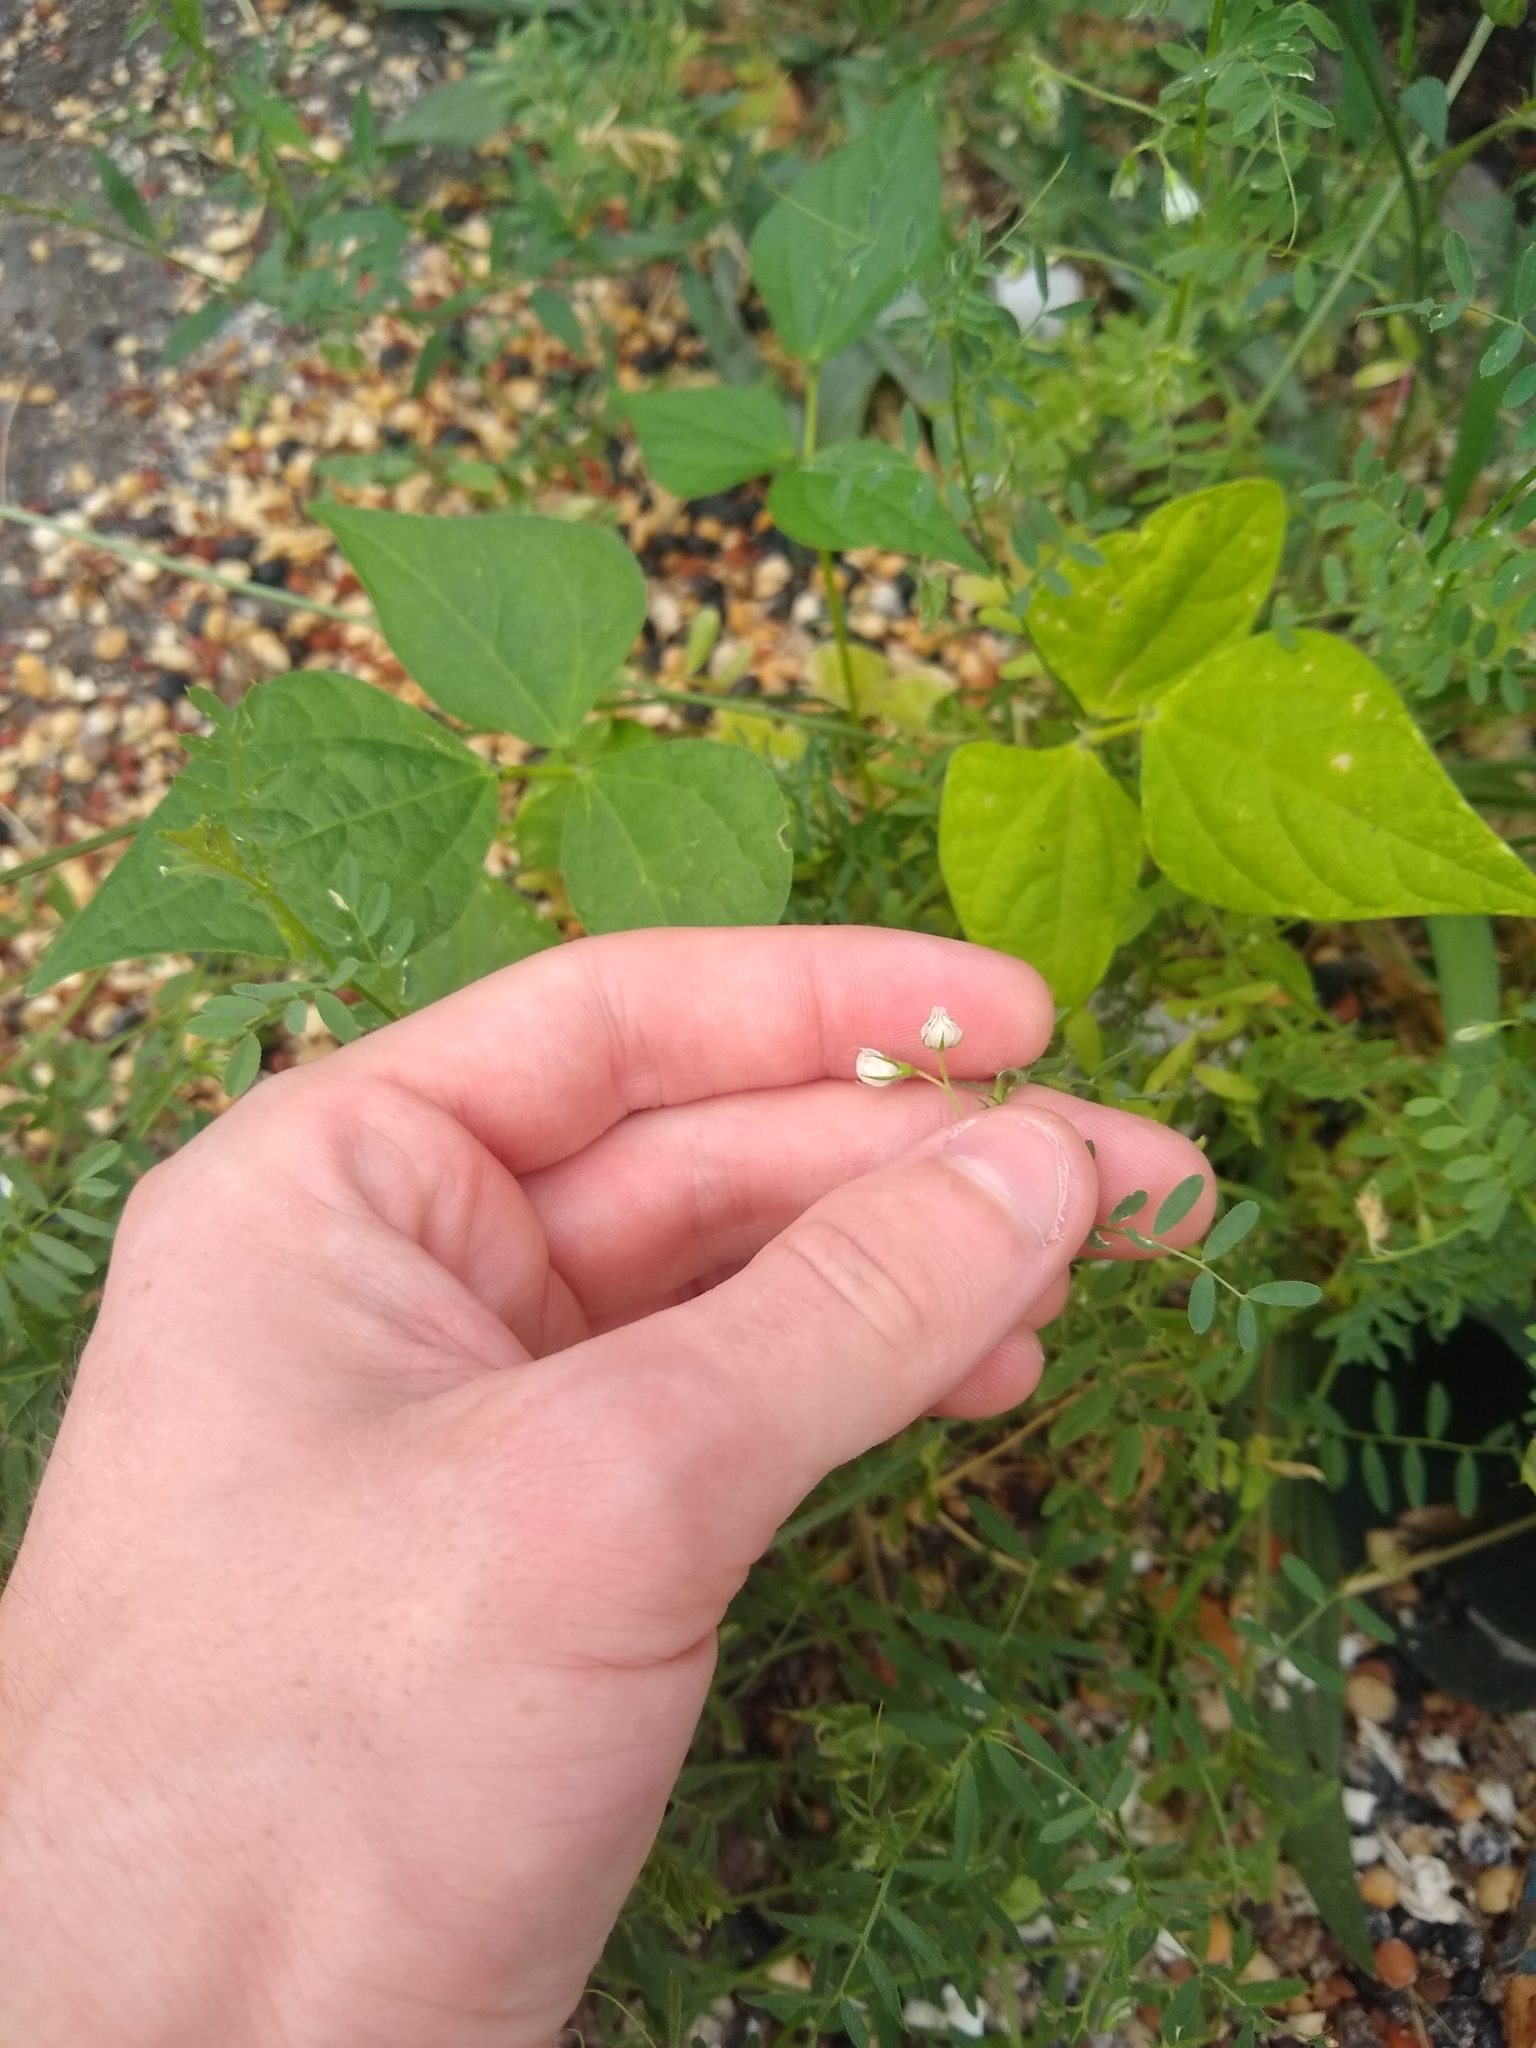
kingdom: Plantae
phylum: Tracheophyta
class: Magnoliopsida
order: Fabales
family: Fabaceae
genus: Vicia
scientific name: Vicia lens
